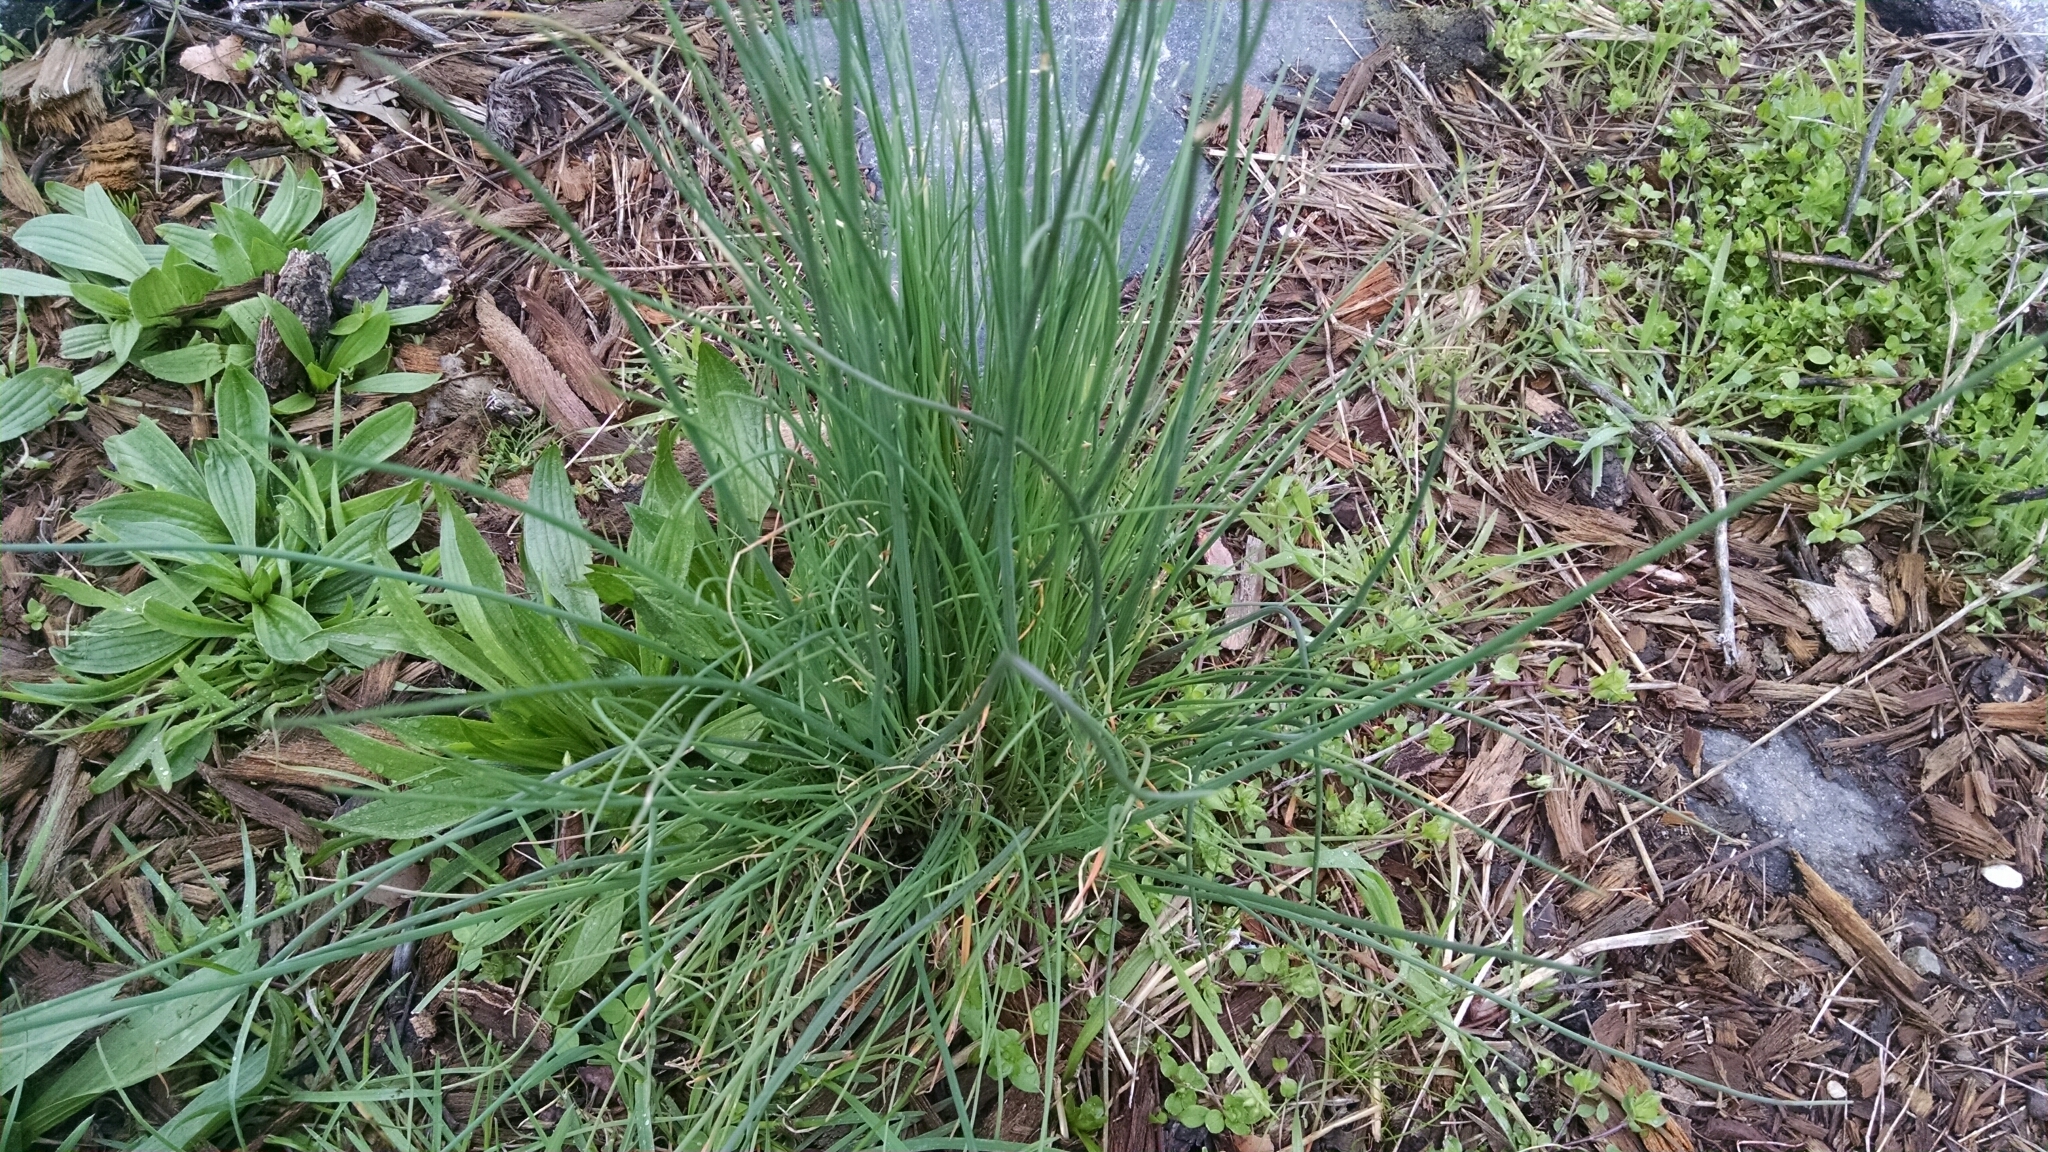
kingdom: Plantae
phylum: Tracheophyta
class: Liliopsida
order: Asparagales
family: Amaryllidaceae
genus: Allium
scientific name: Allium vineale
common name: Crow garlic
